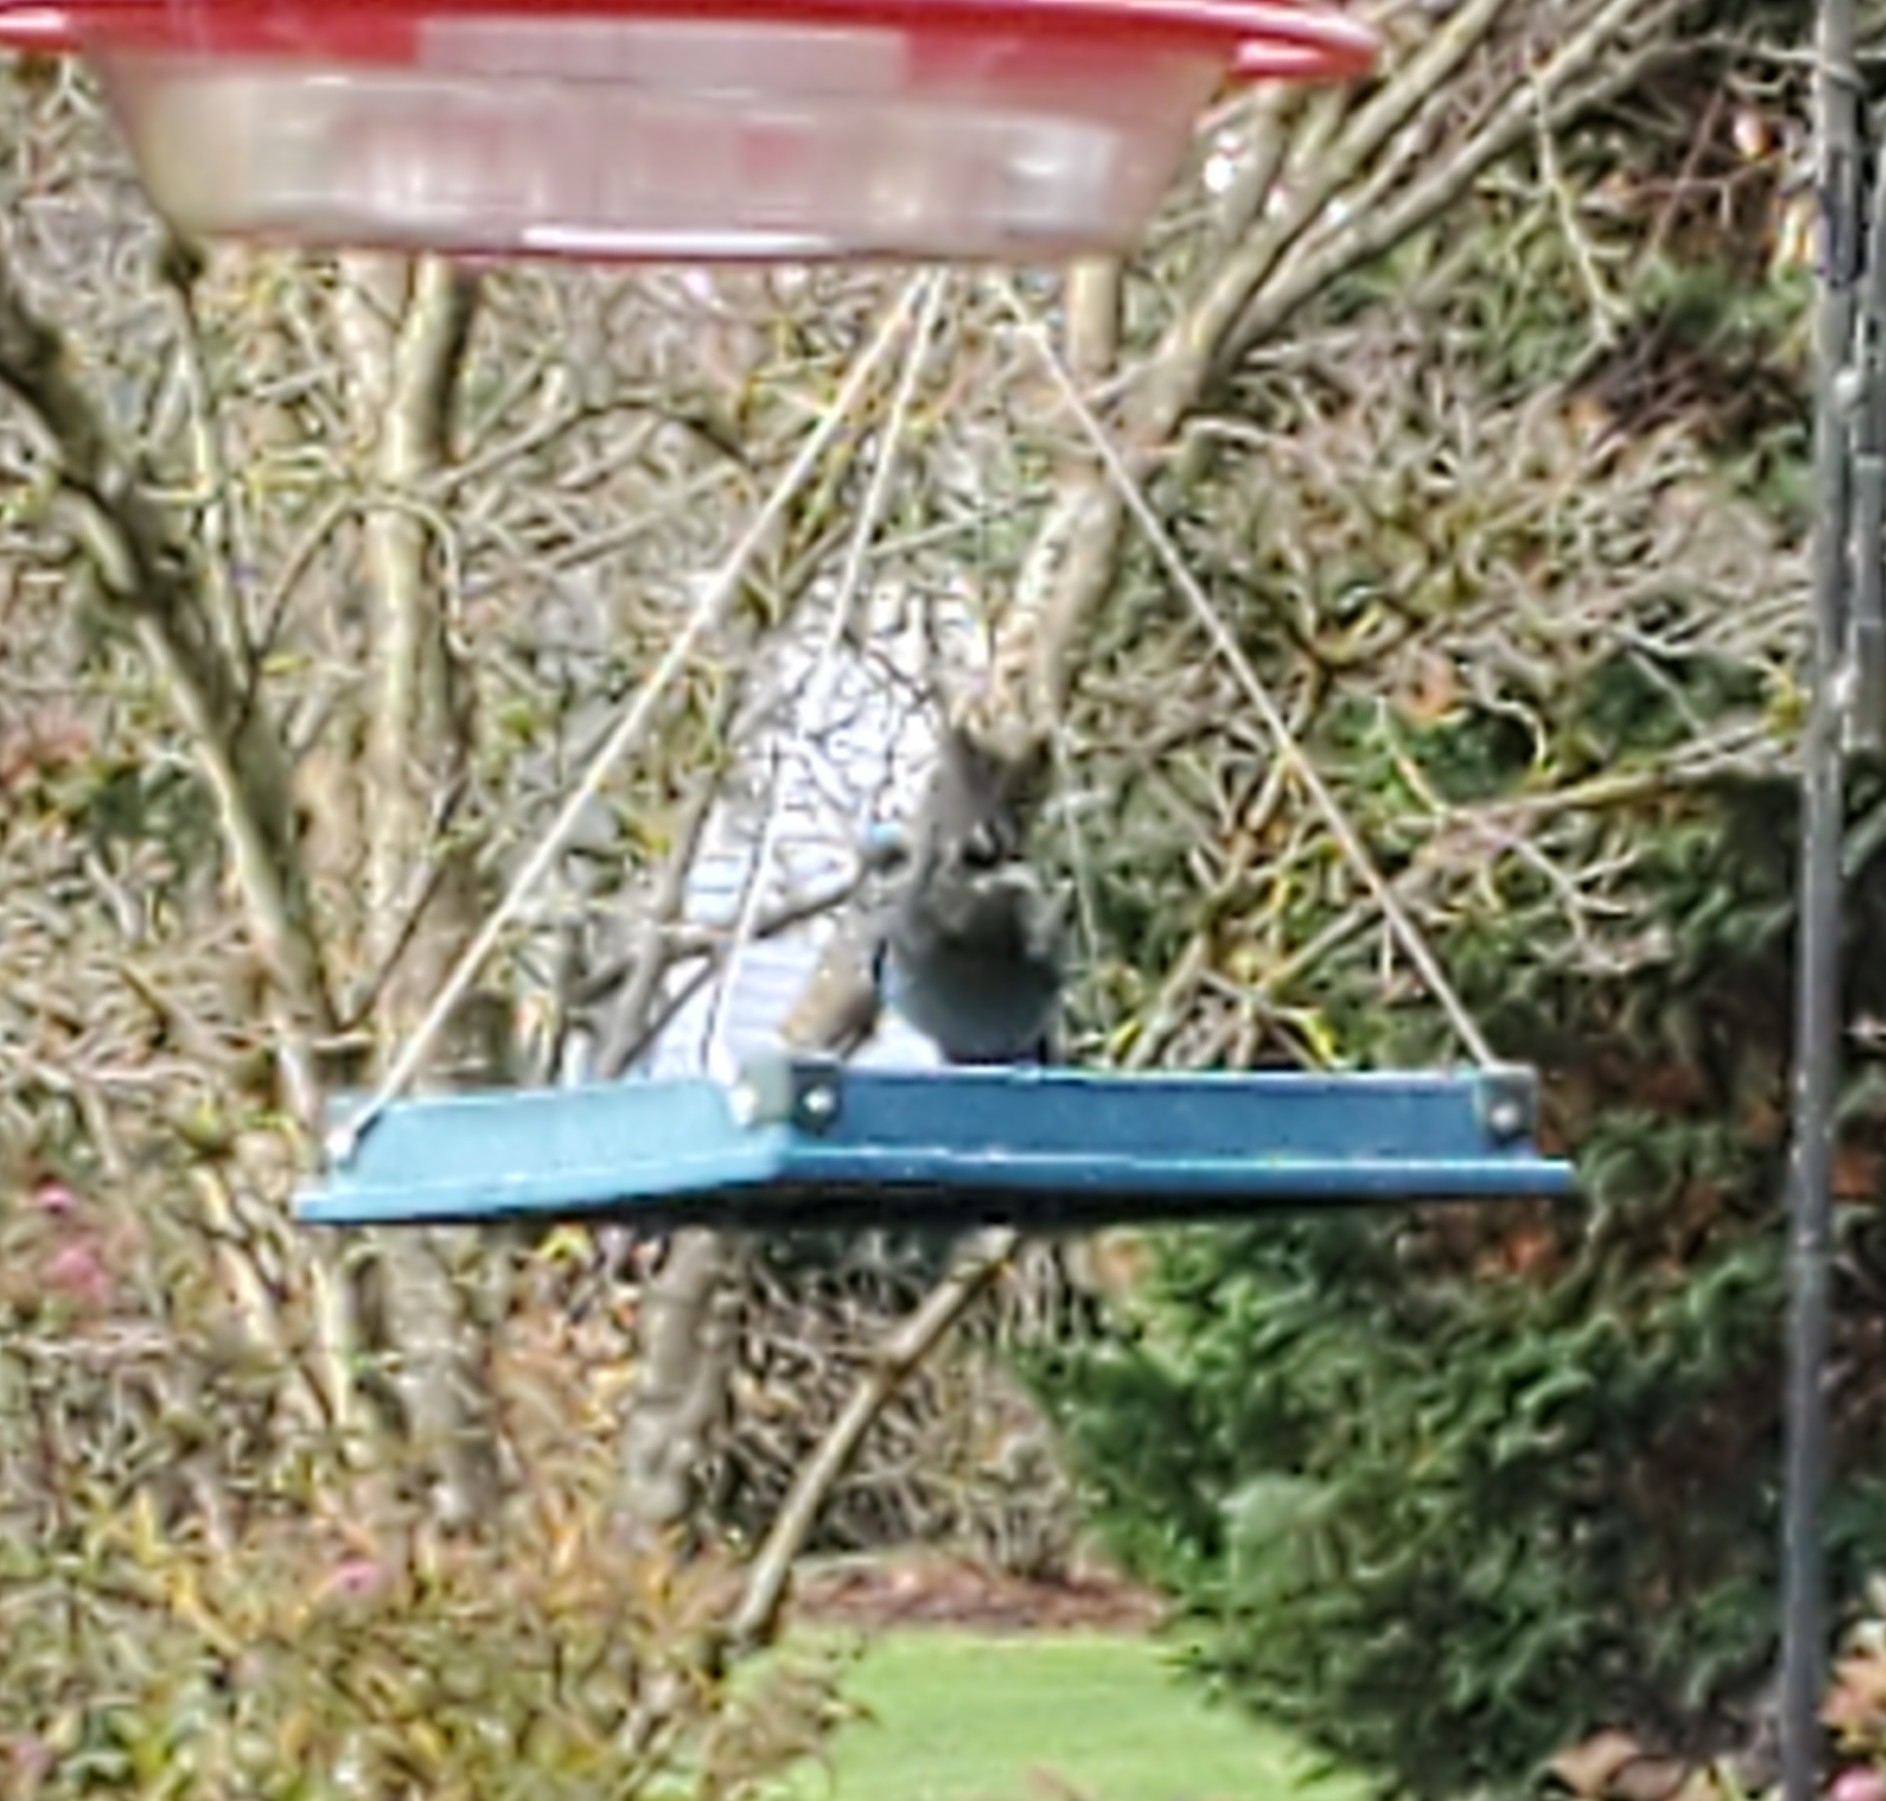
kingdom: Animalia
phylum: Chordata
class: Aves
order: Passeriformes
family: Corvidae
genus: Cyanocitta
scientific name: Cyanocitta stelleri
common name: Steller's jay
